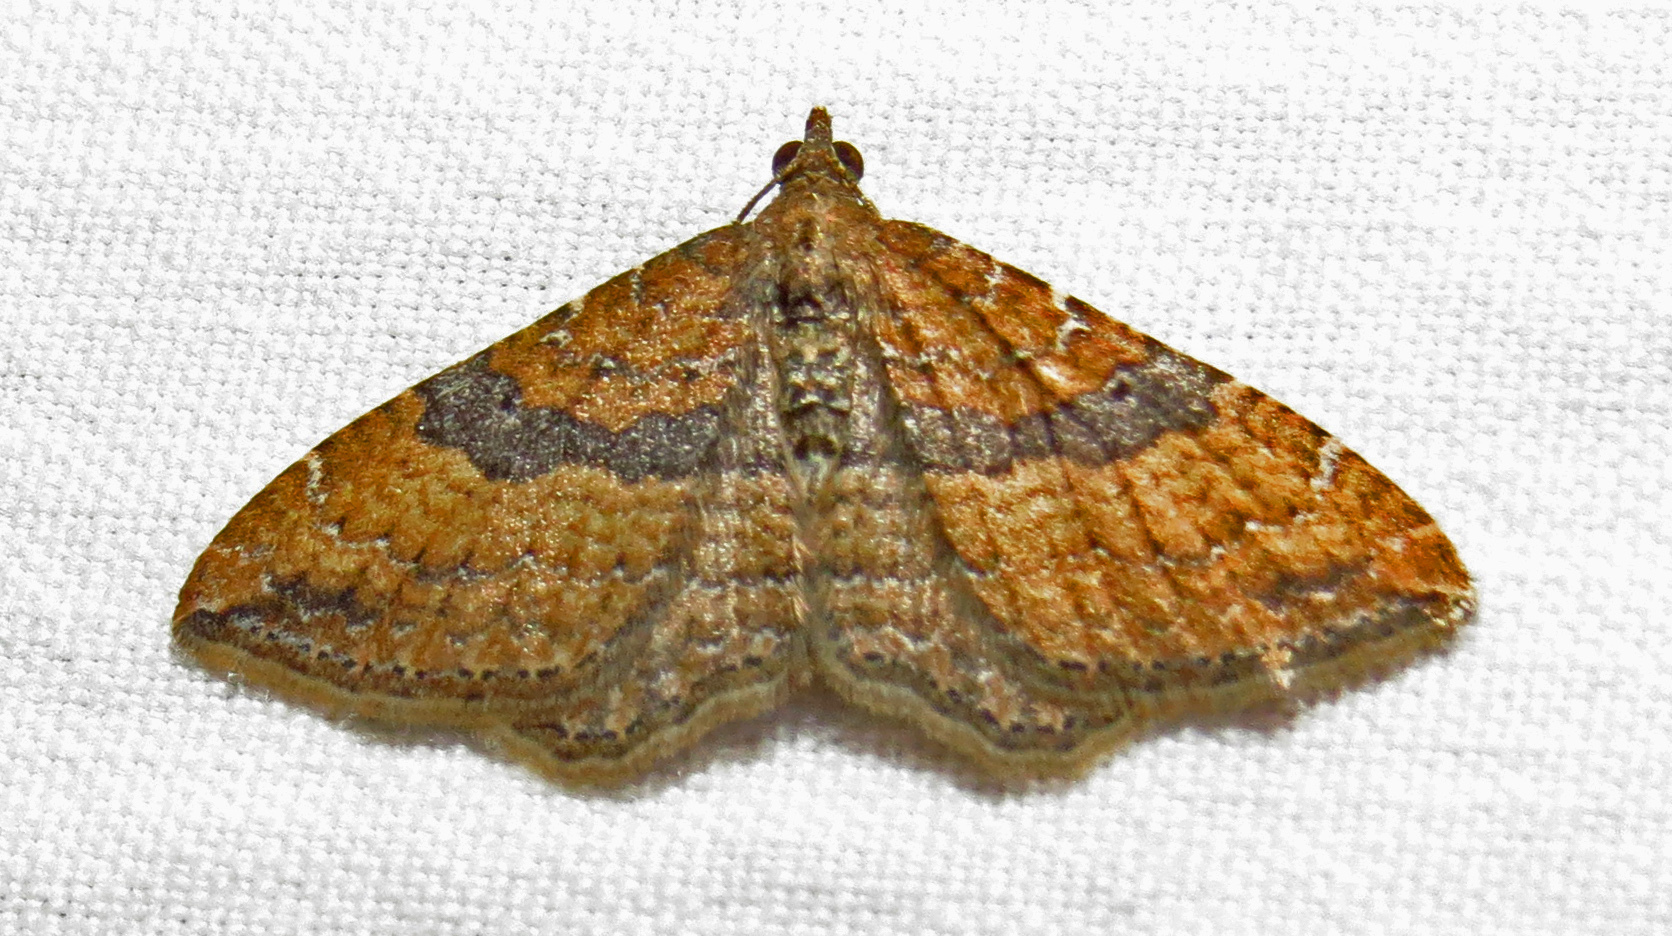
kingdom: Animalia
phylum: Arthropoda
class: Insecta
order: Lepidoptera
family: Geometridae
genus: Orthonama
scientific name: Orthonama obstipata
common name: The gem
